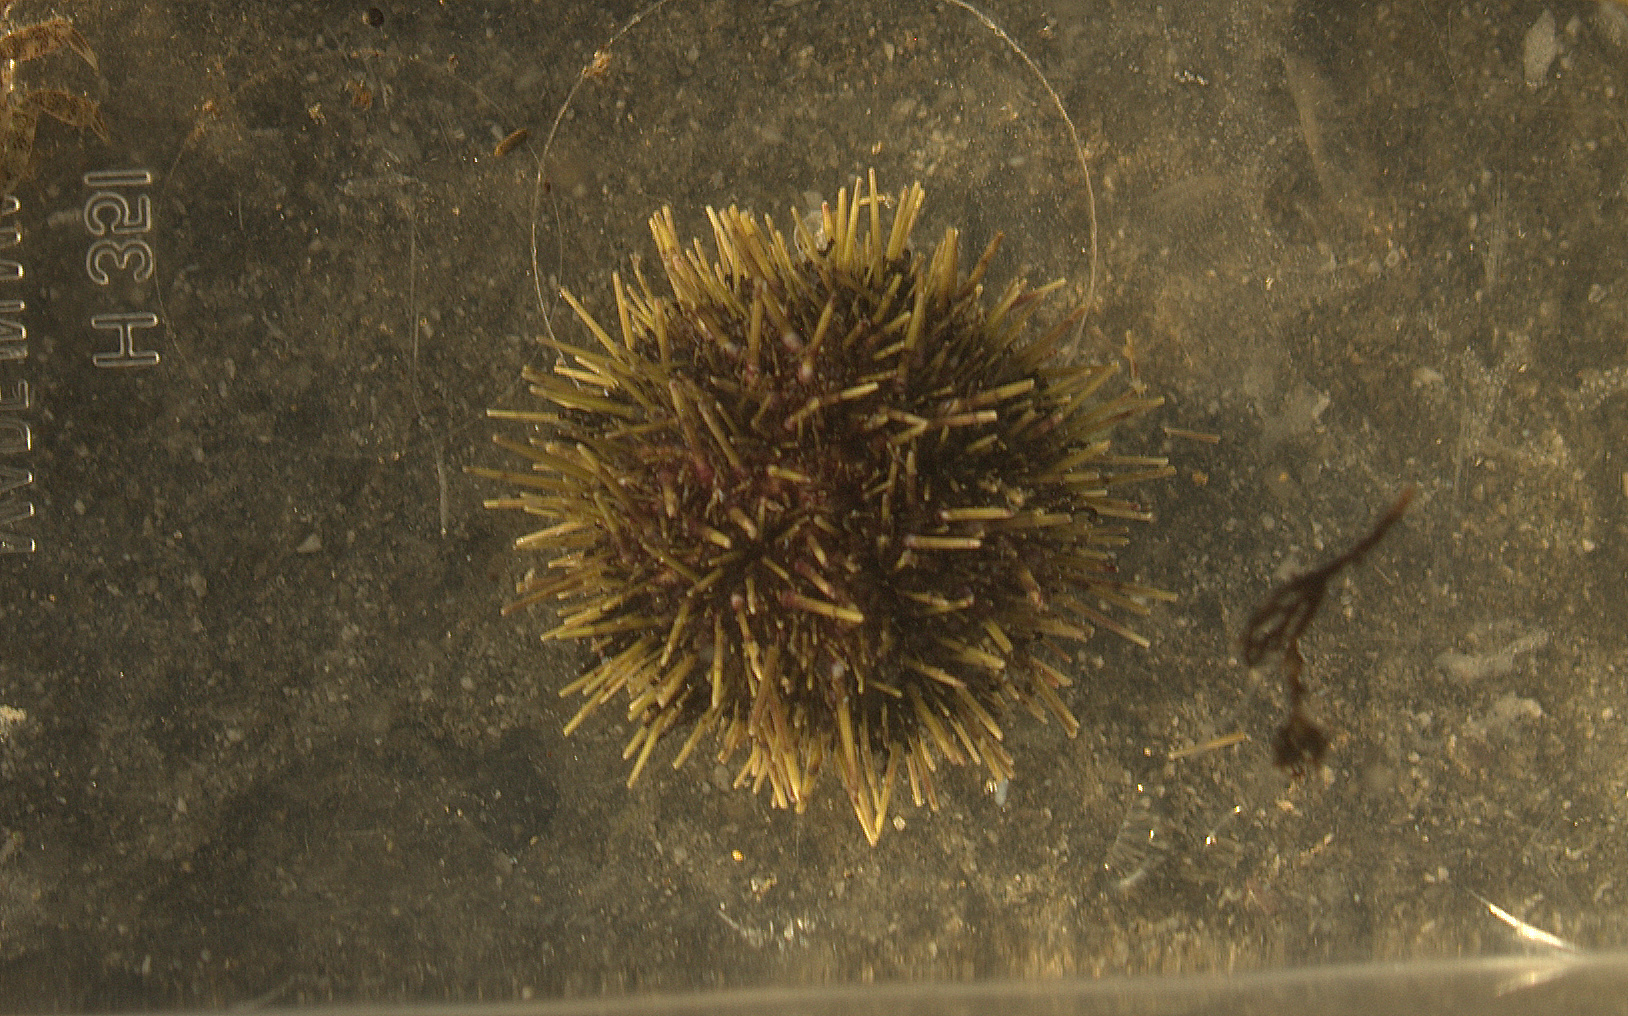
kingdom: Animalia
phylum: Echinodermata
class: Echinoidea
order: Camarodonta
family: Strongylocentrotidae
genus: Strongylocentrotus
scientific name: Strongylocentrotus droebachiensis
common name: Northern sea urchin
